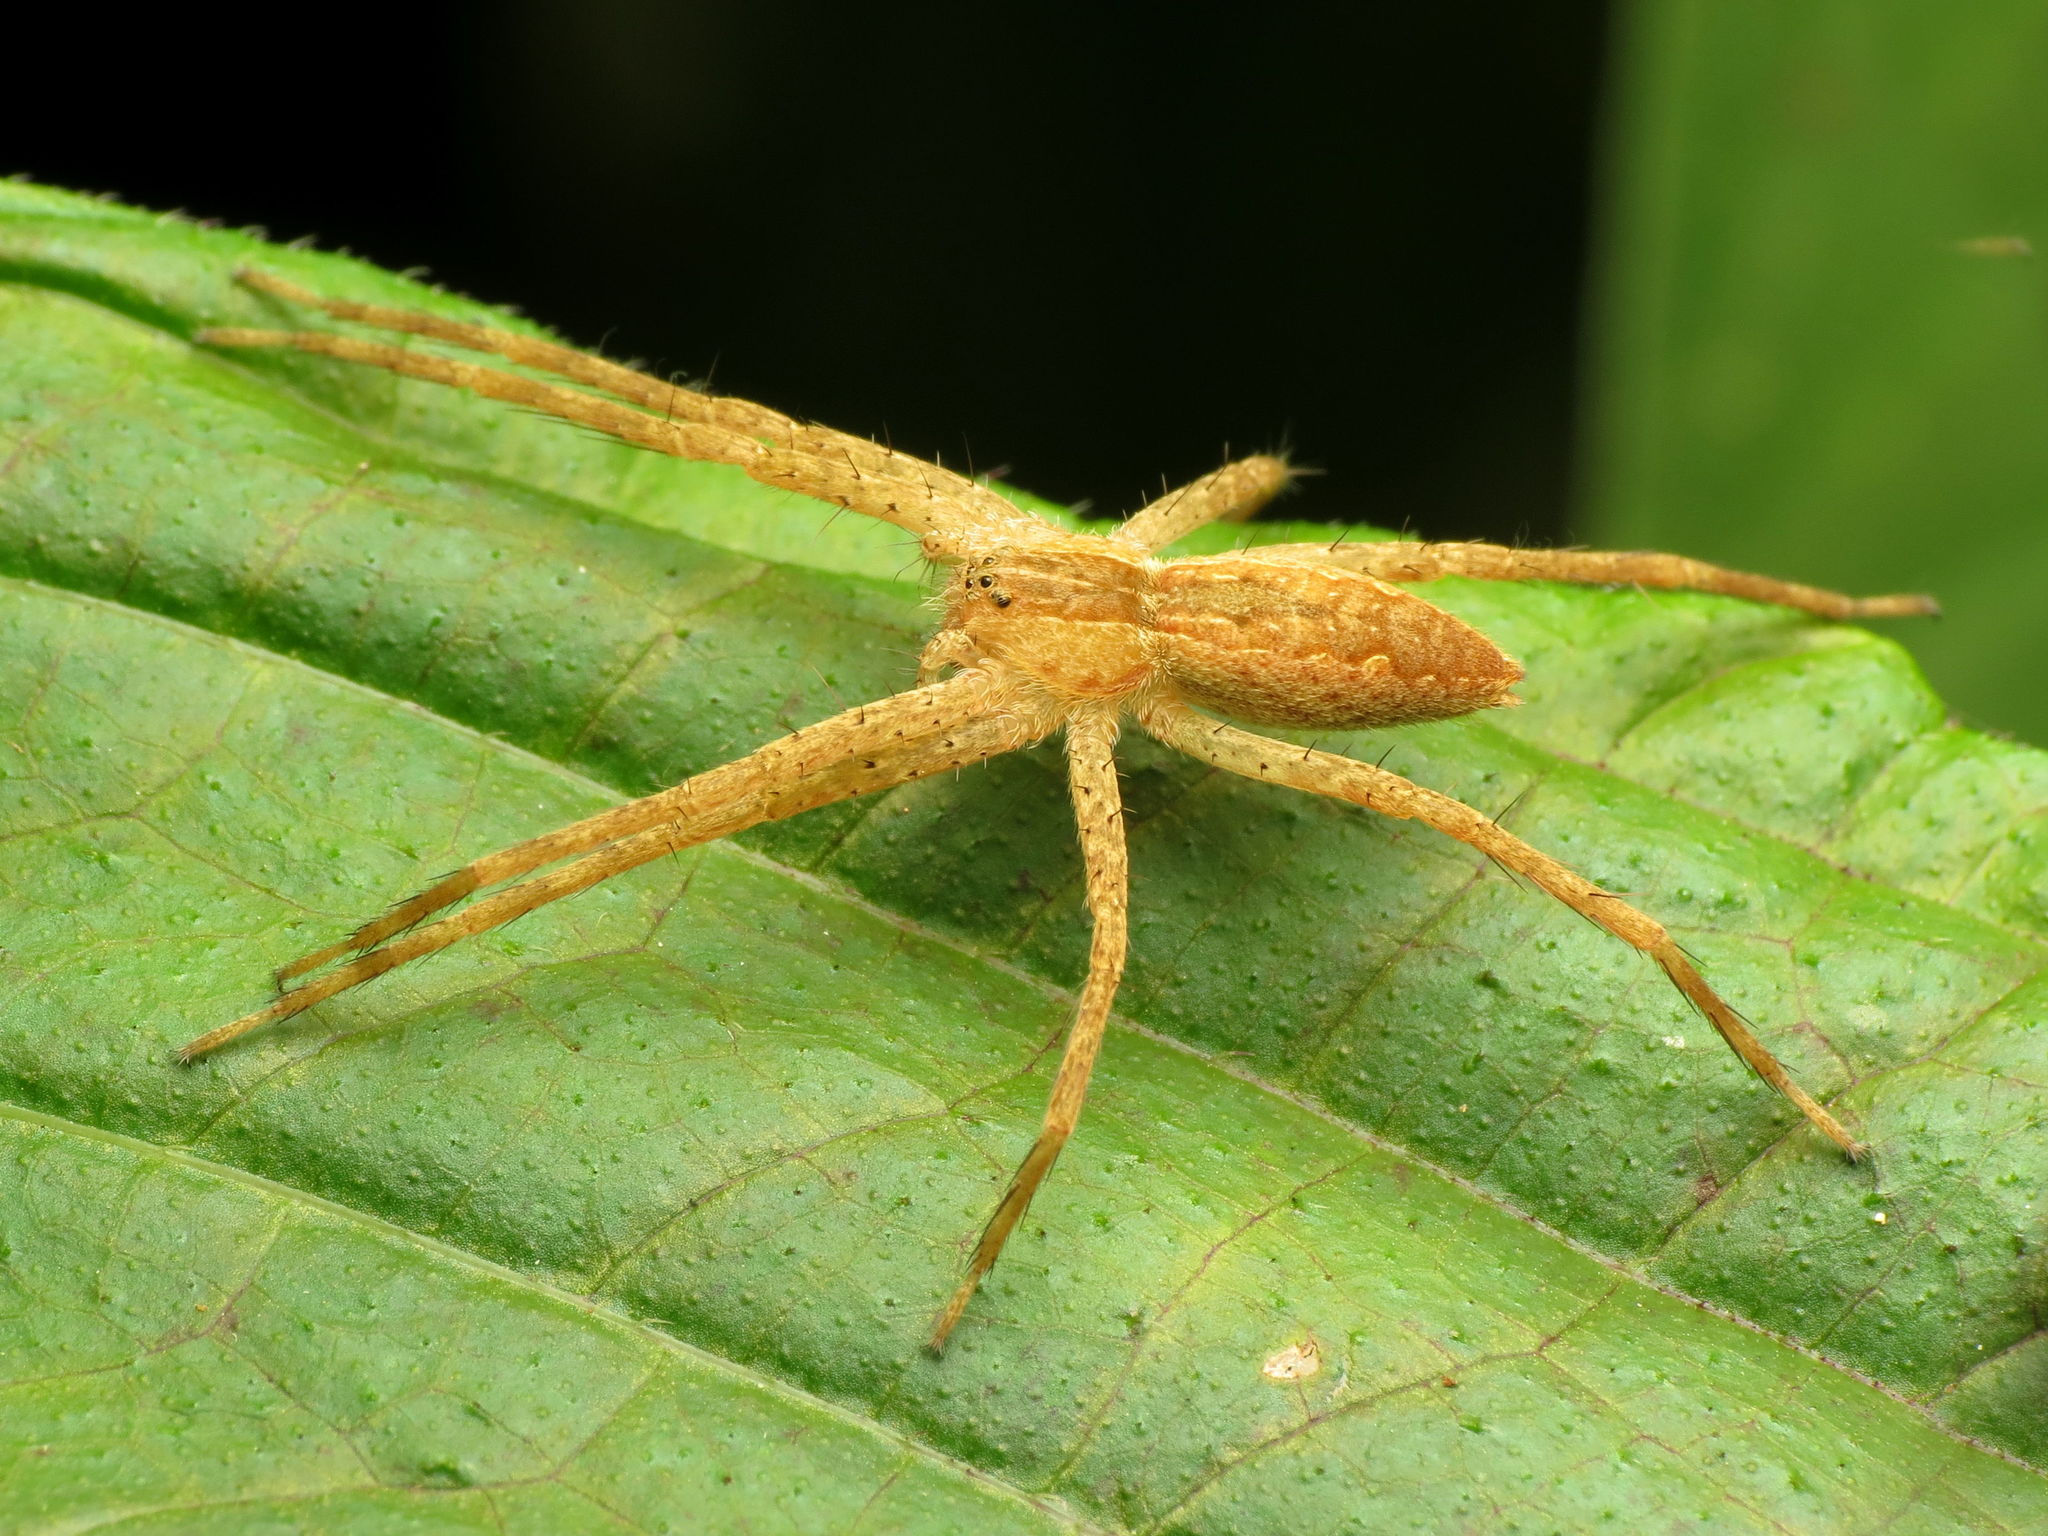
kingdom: Animalia
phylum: Arthropoda
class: Arachnida
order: Araneae
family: Pisauridae
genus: Pisaurina
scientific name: Pisaurina mira
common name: American nursery web spider
